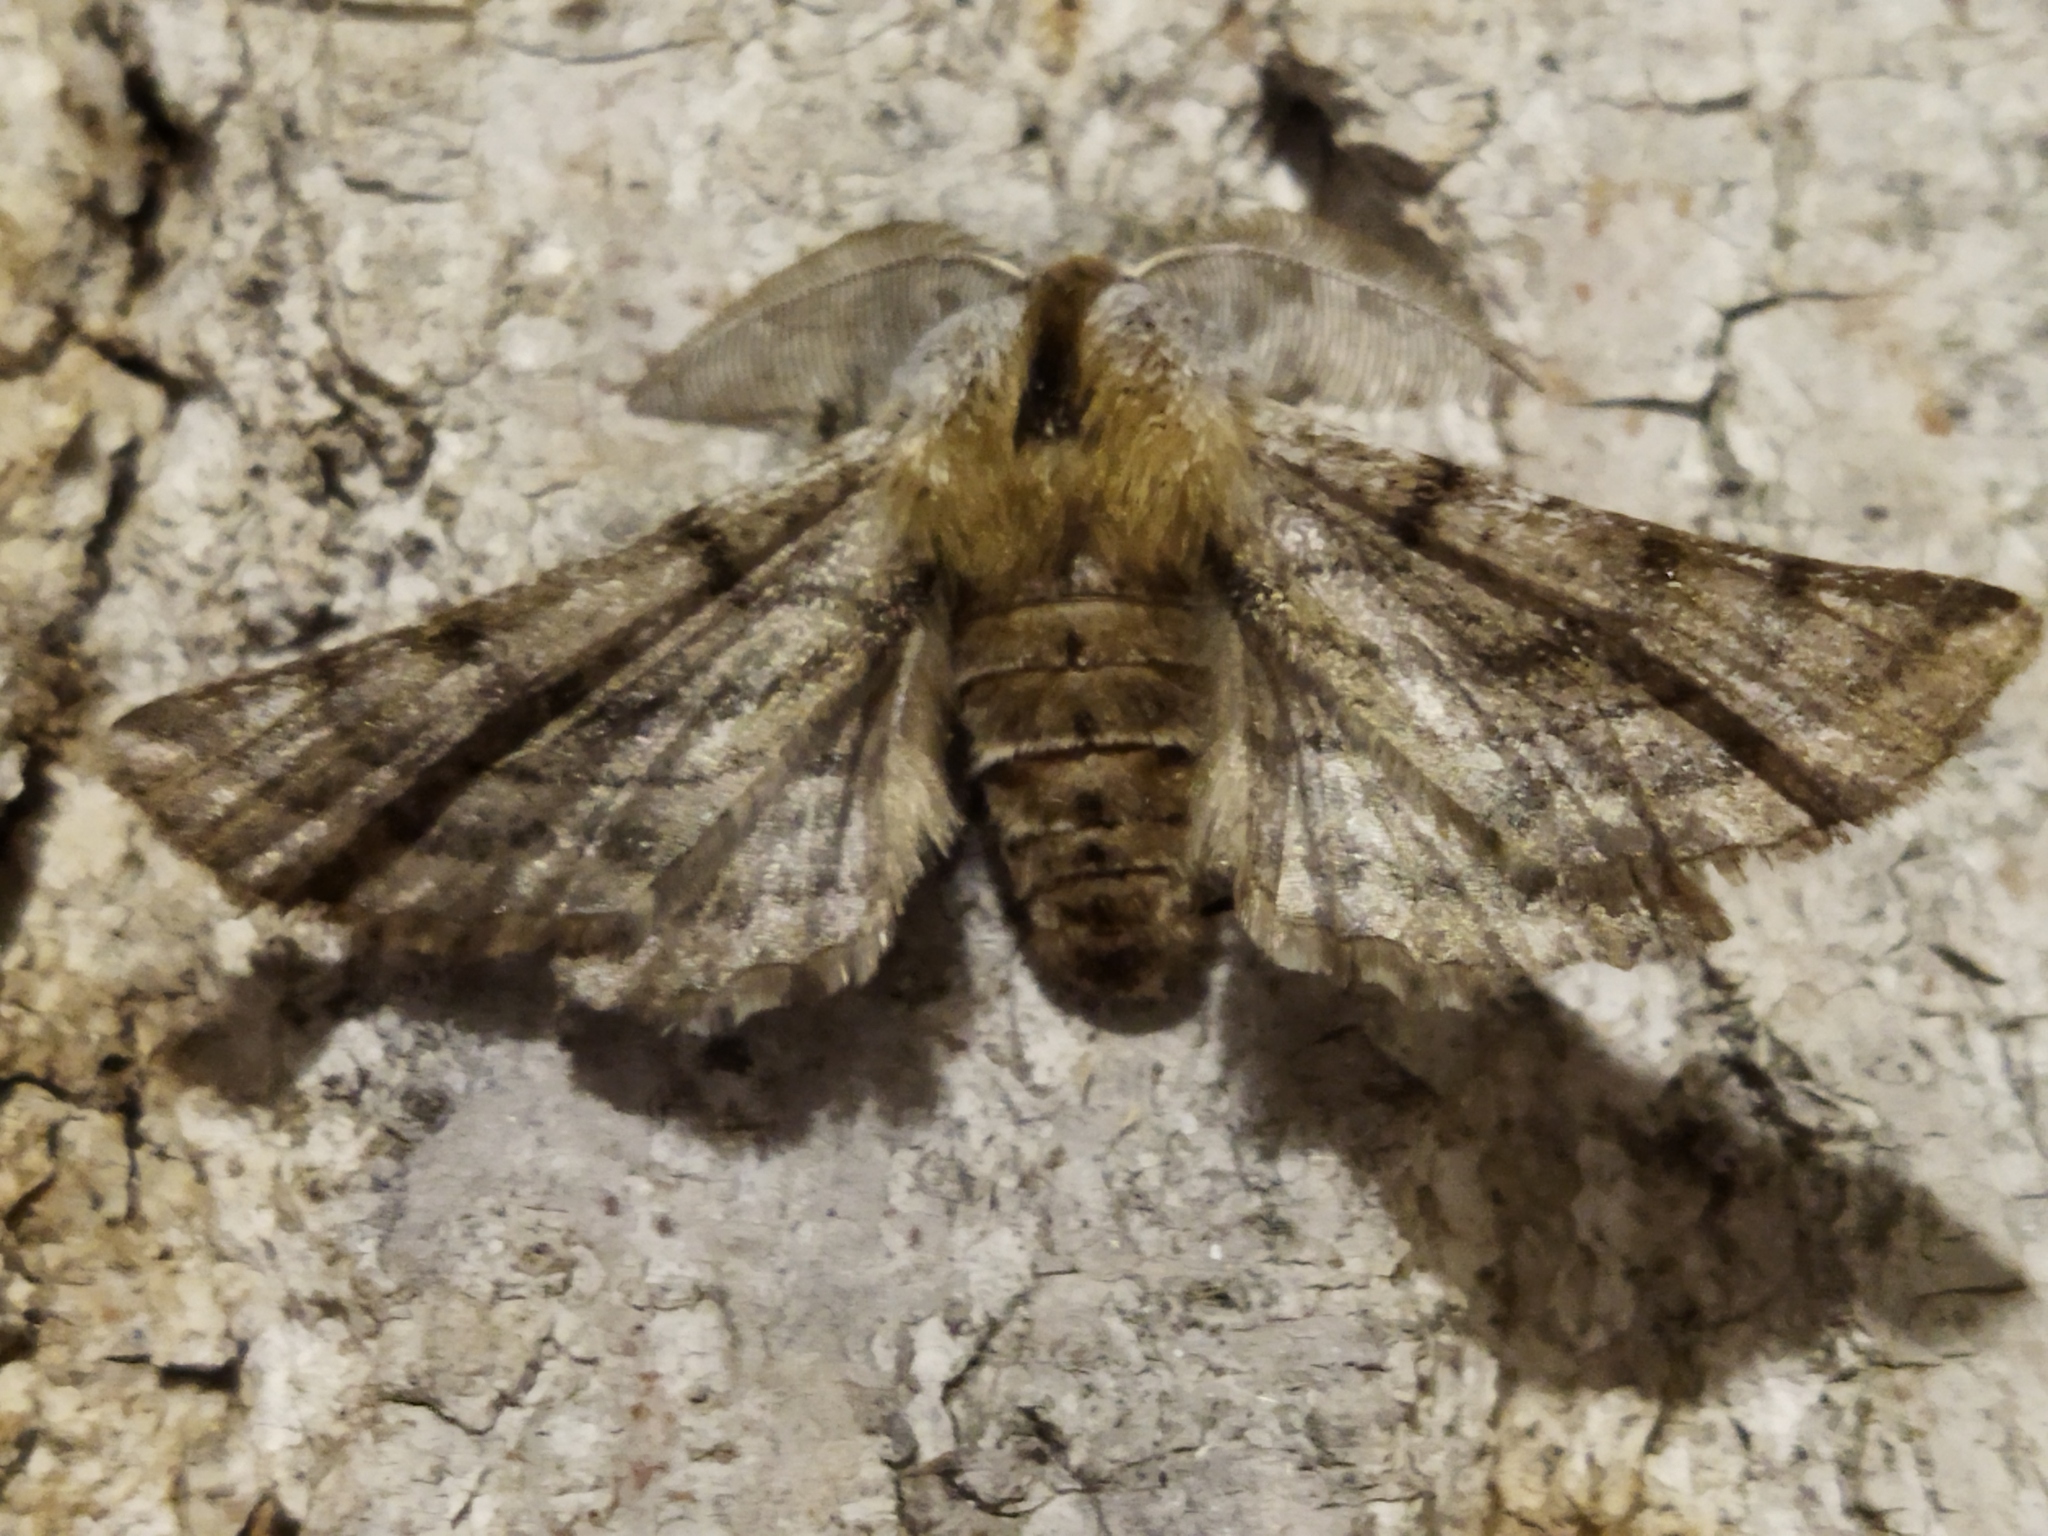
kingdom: Animalia
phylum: Arthropoda
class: Insecta
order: Lepidoptera
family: Geometridae
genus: Apochima
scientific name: Apochima flabellaria
